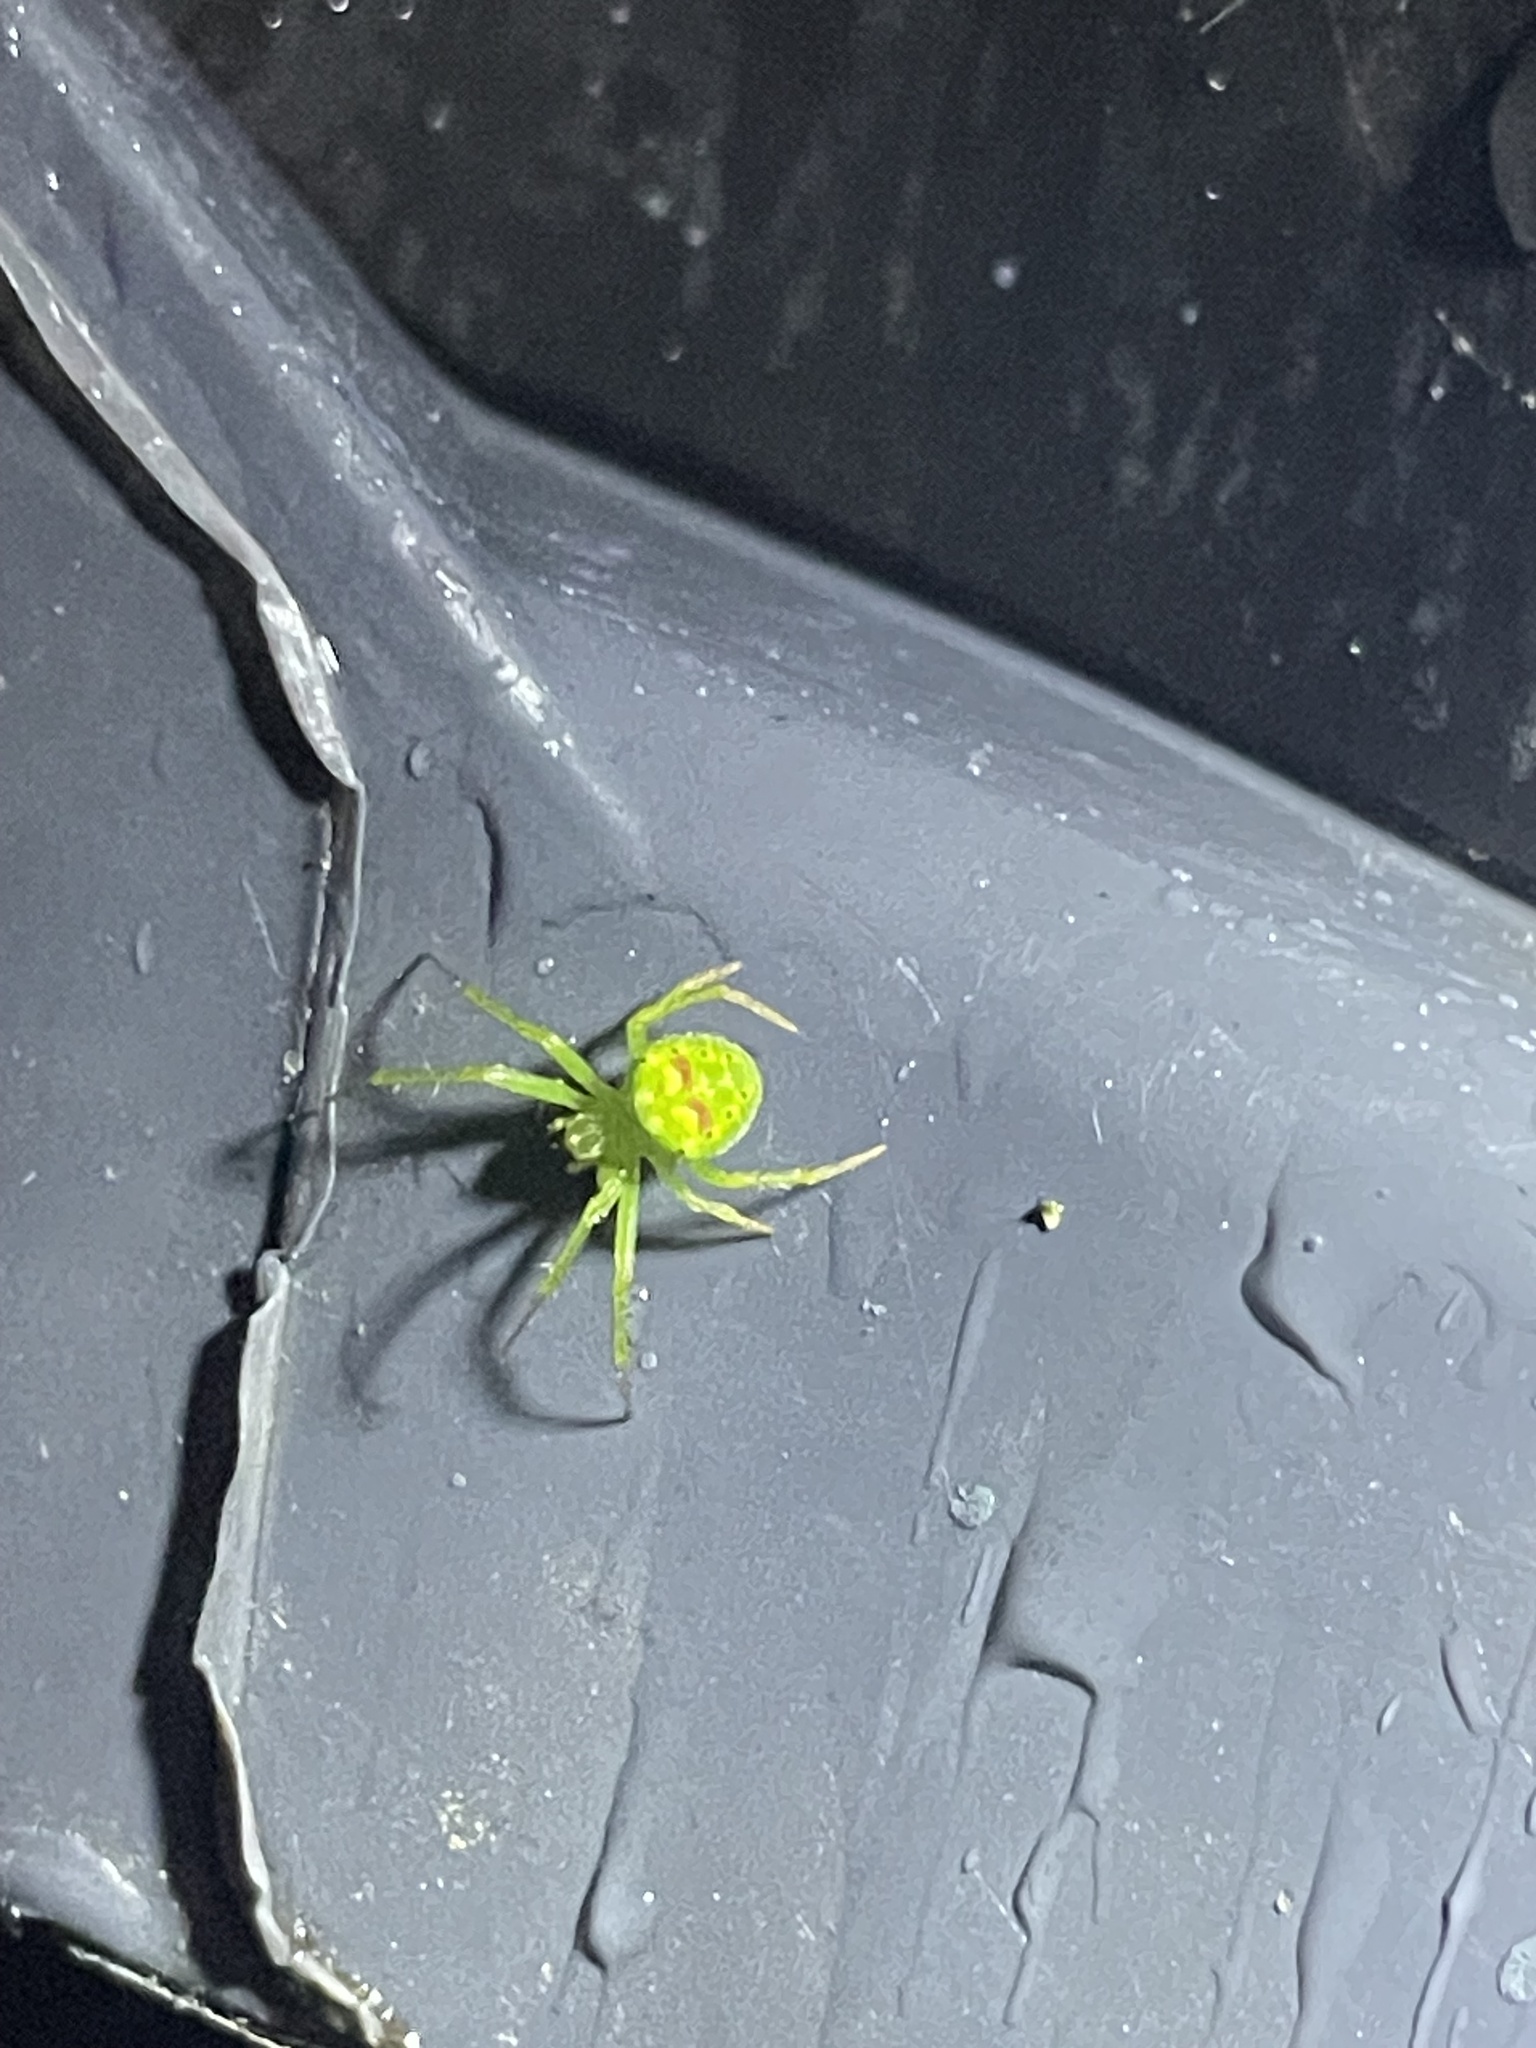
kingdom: Animalia
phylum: Arthropoda
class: Arachnida
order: Araneae
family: Araneidae
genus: Araneus
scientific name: Araneus cingulatus
